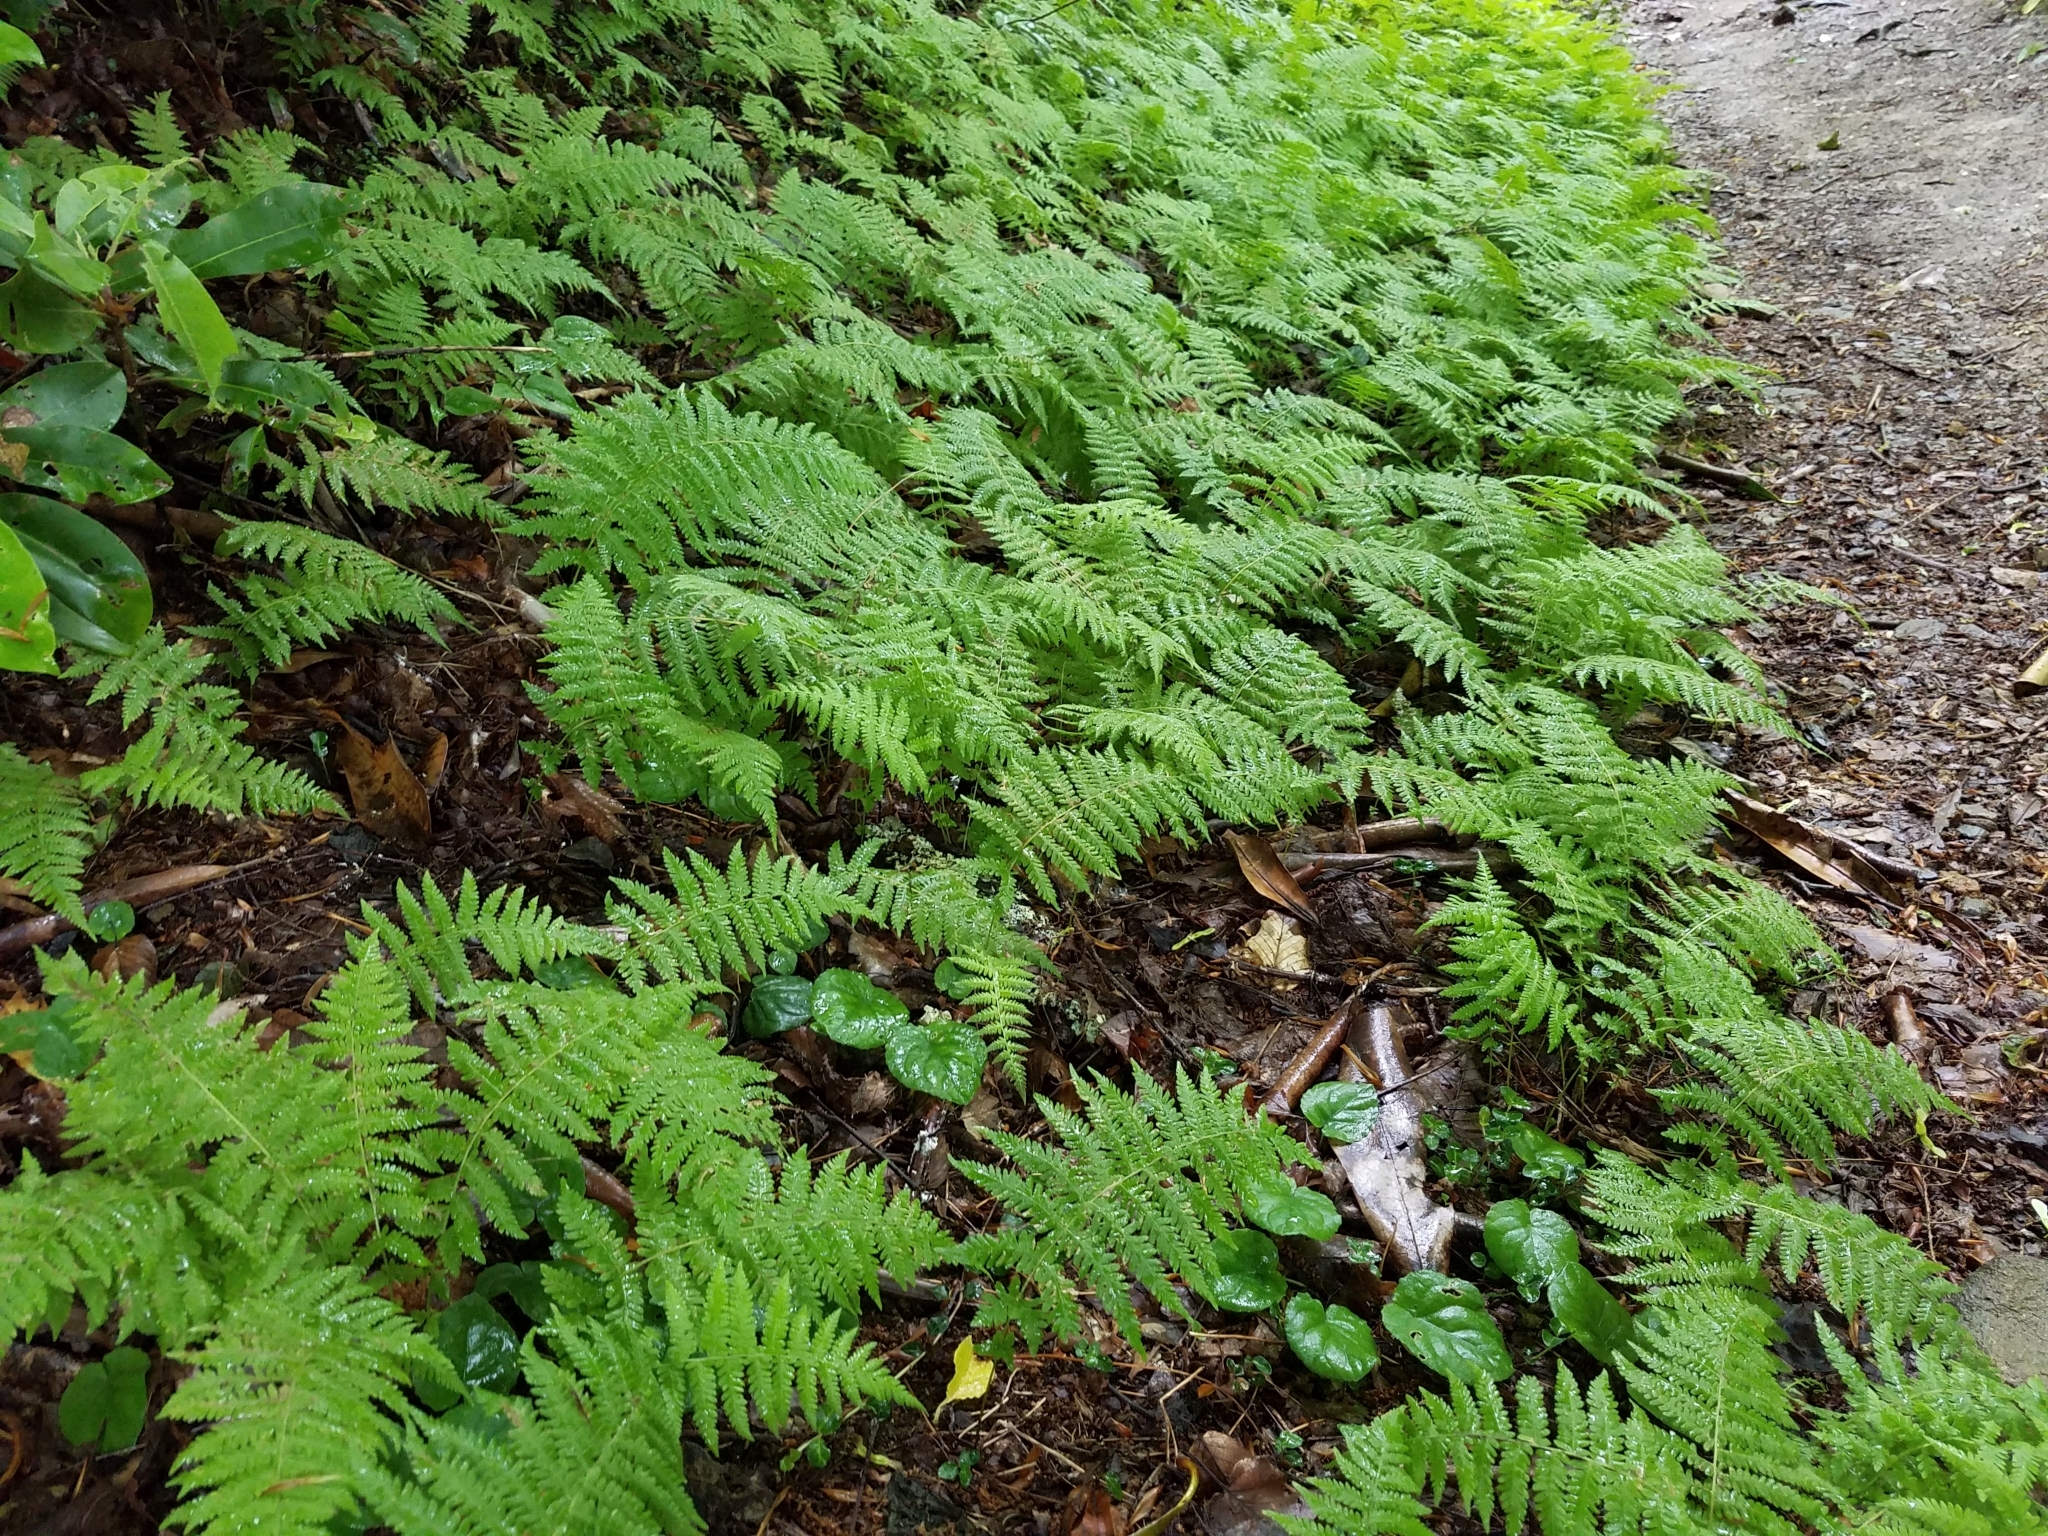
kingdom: Plantae
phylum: Tracheophyta
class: Polypodiopsida
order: Polypodiales
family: Dryopteridaceae
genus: Dryopteris
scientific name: Dryopteris intermedia
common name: Evergreen wood fern
